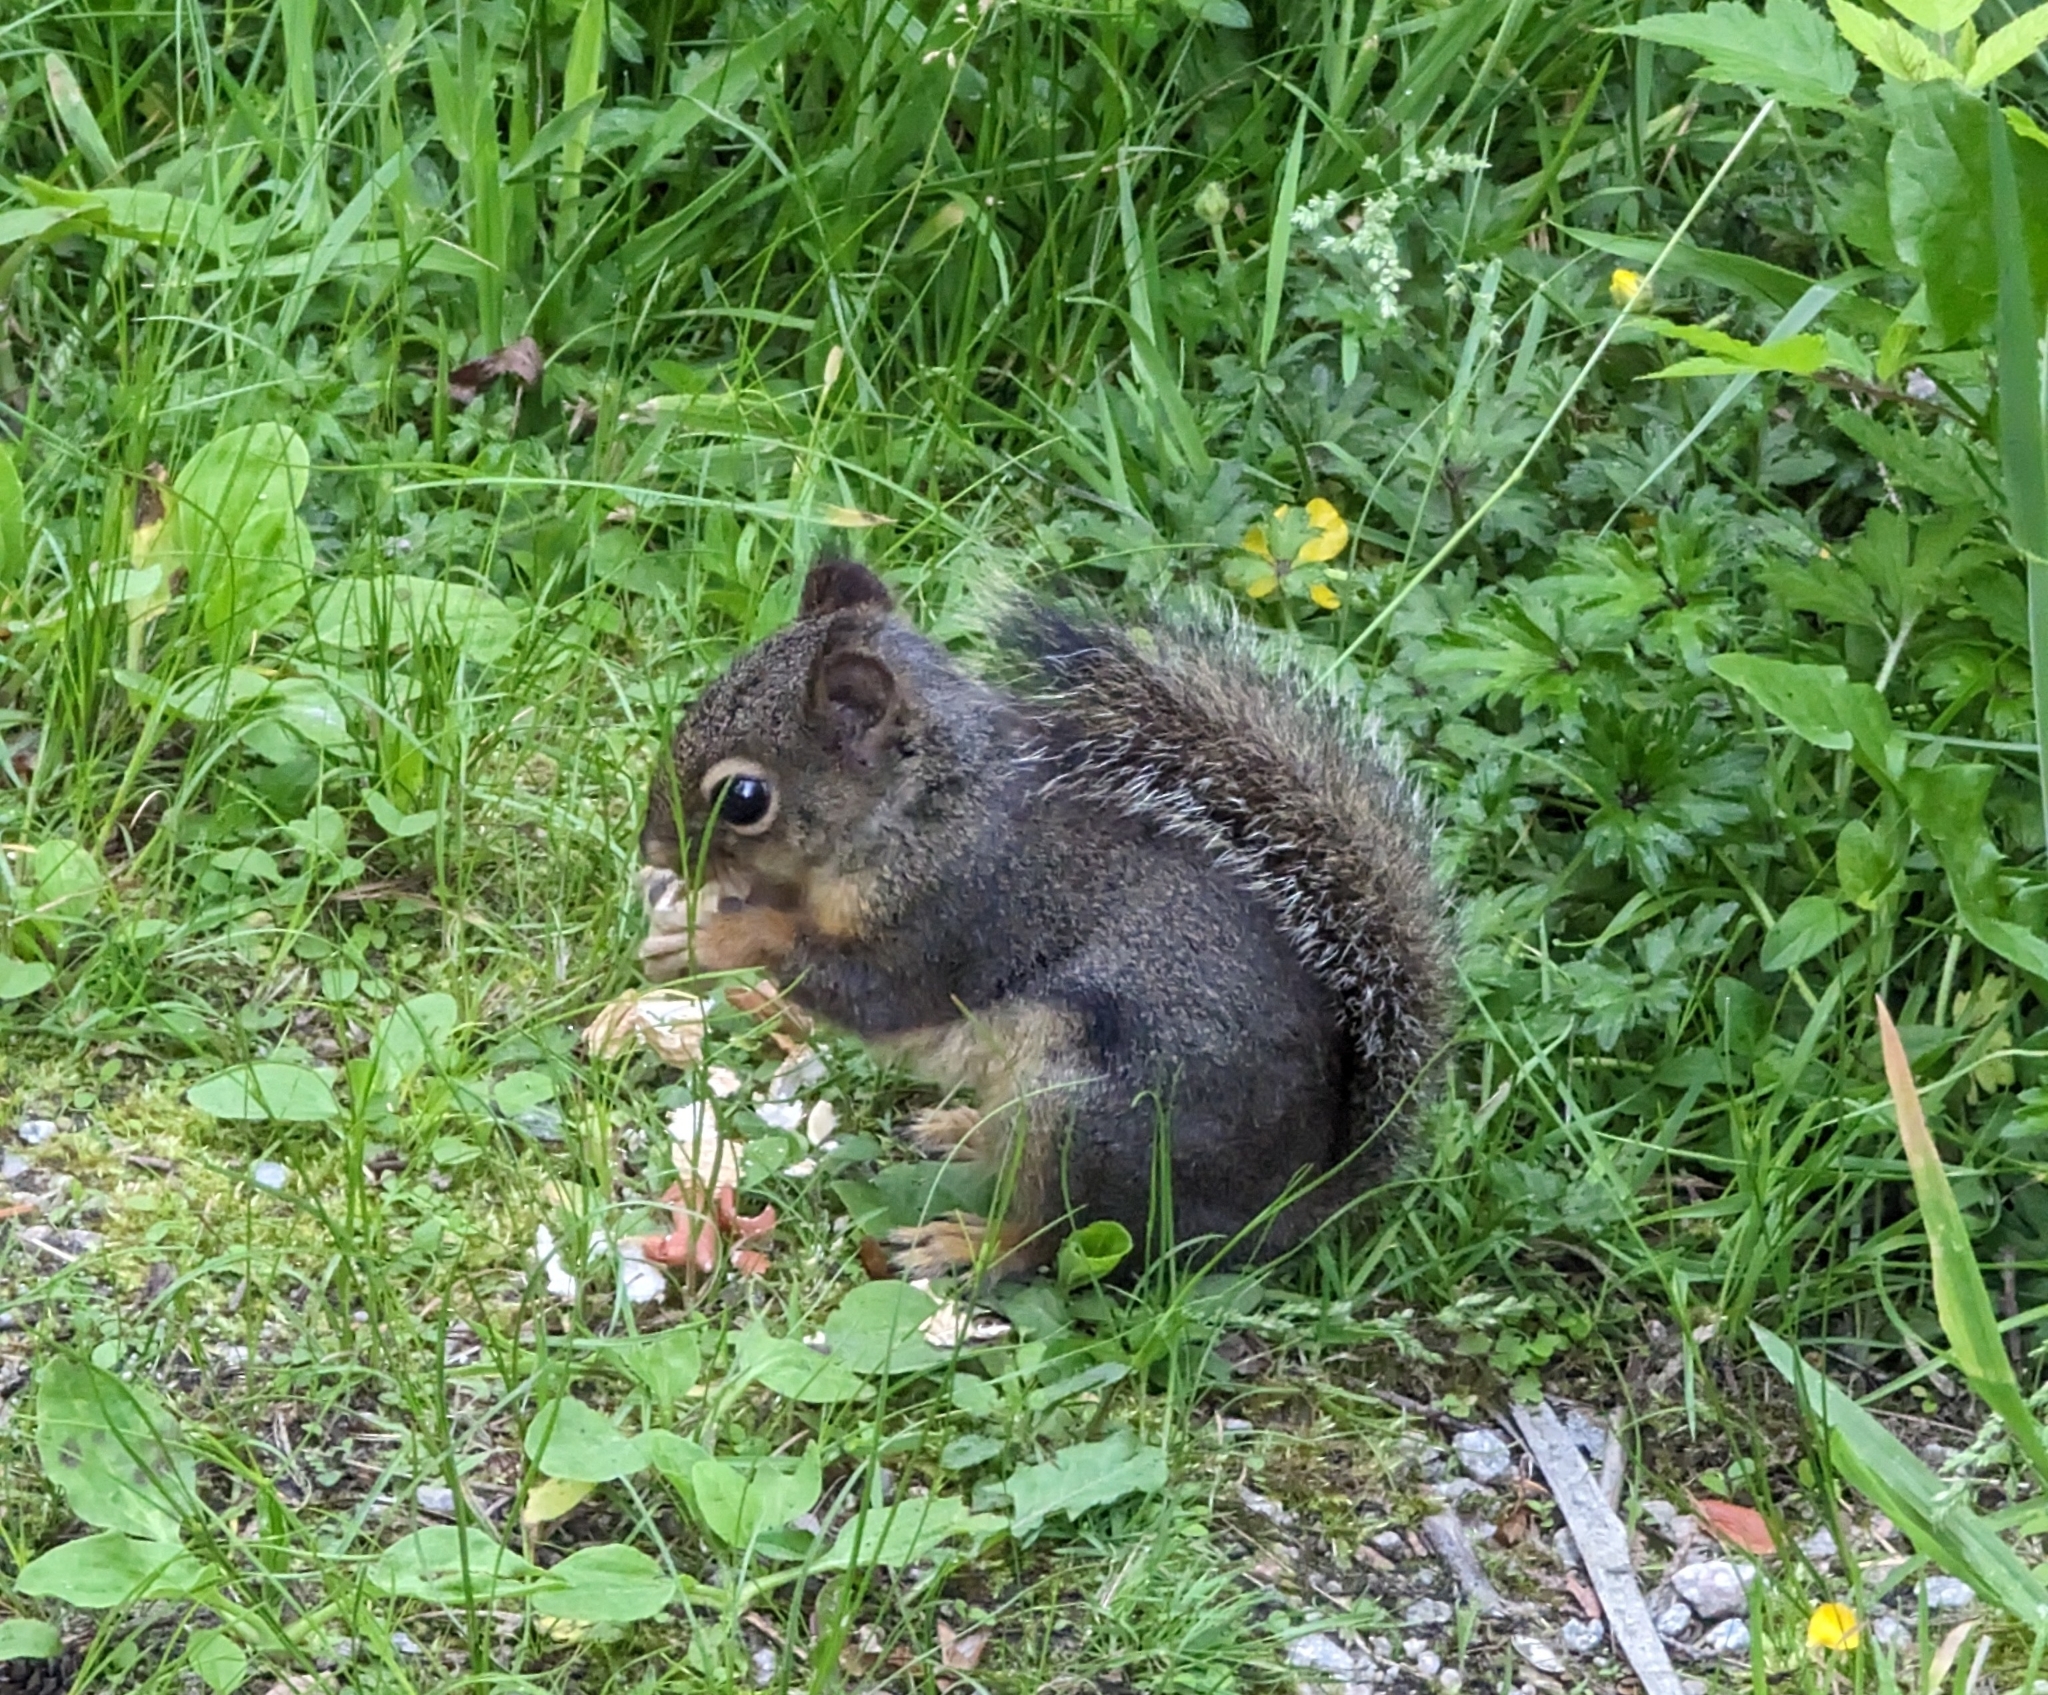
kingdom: Animalia
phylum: Chordata
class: Mammalia
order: Rodentia
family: Sciuridae
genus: Tamiasciurus
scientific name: Tamiasciurus douglasii
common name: Douglas's squirrel
